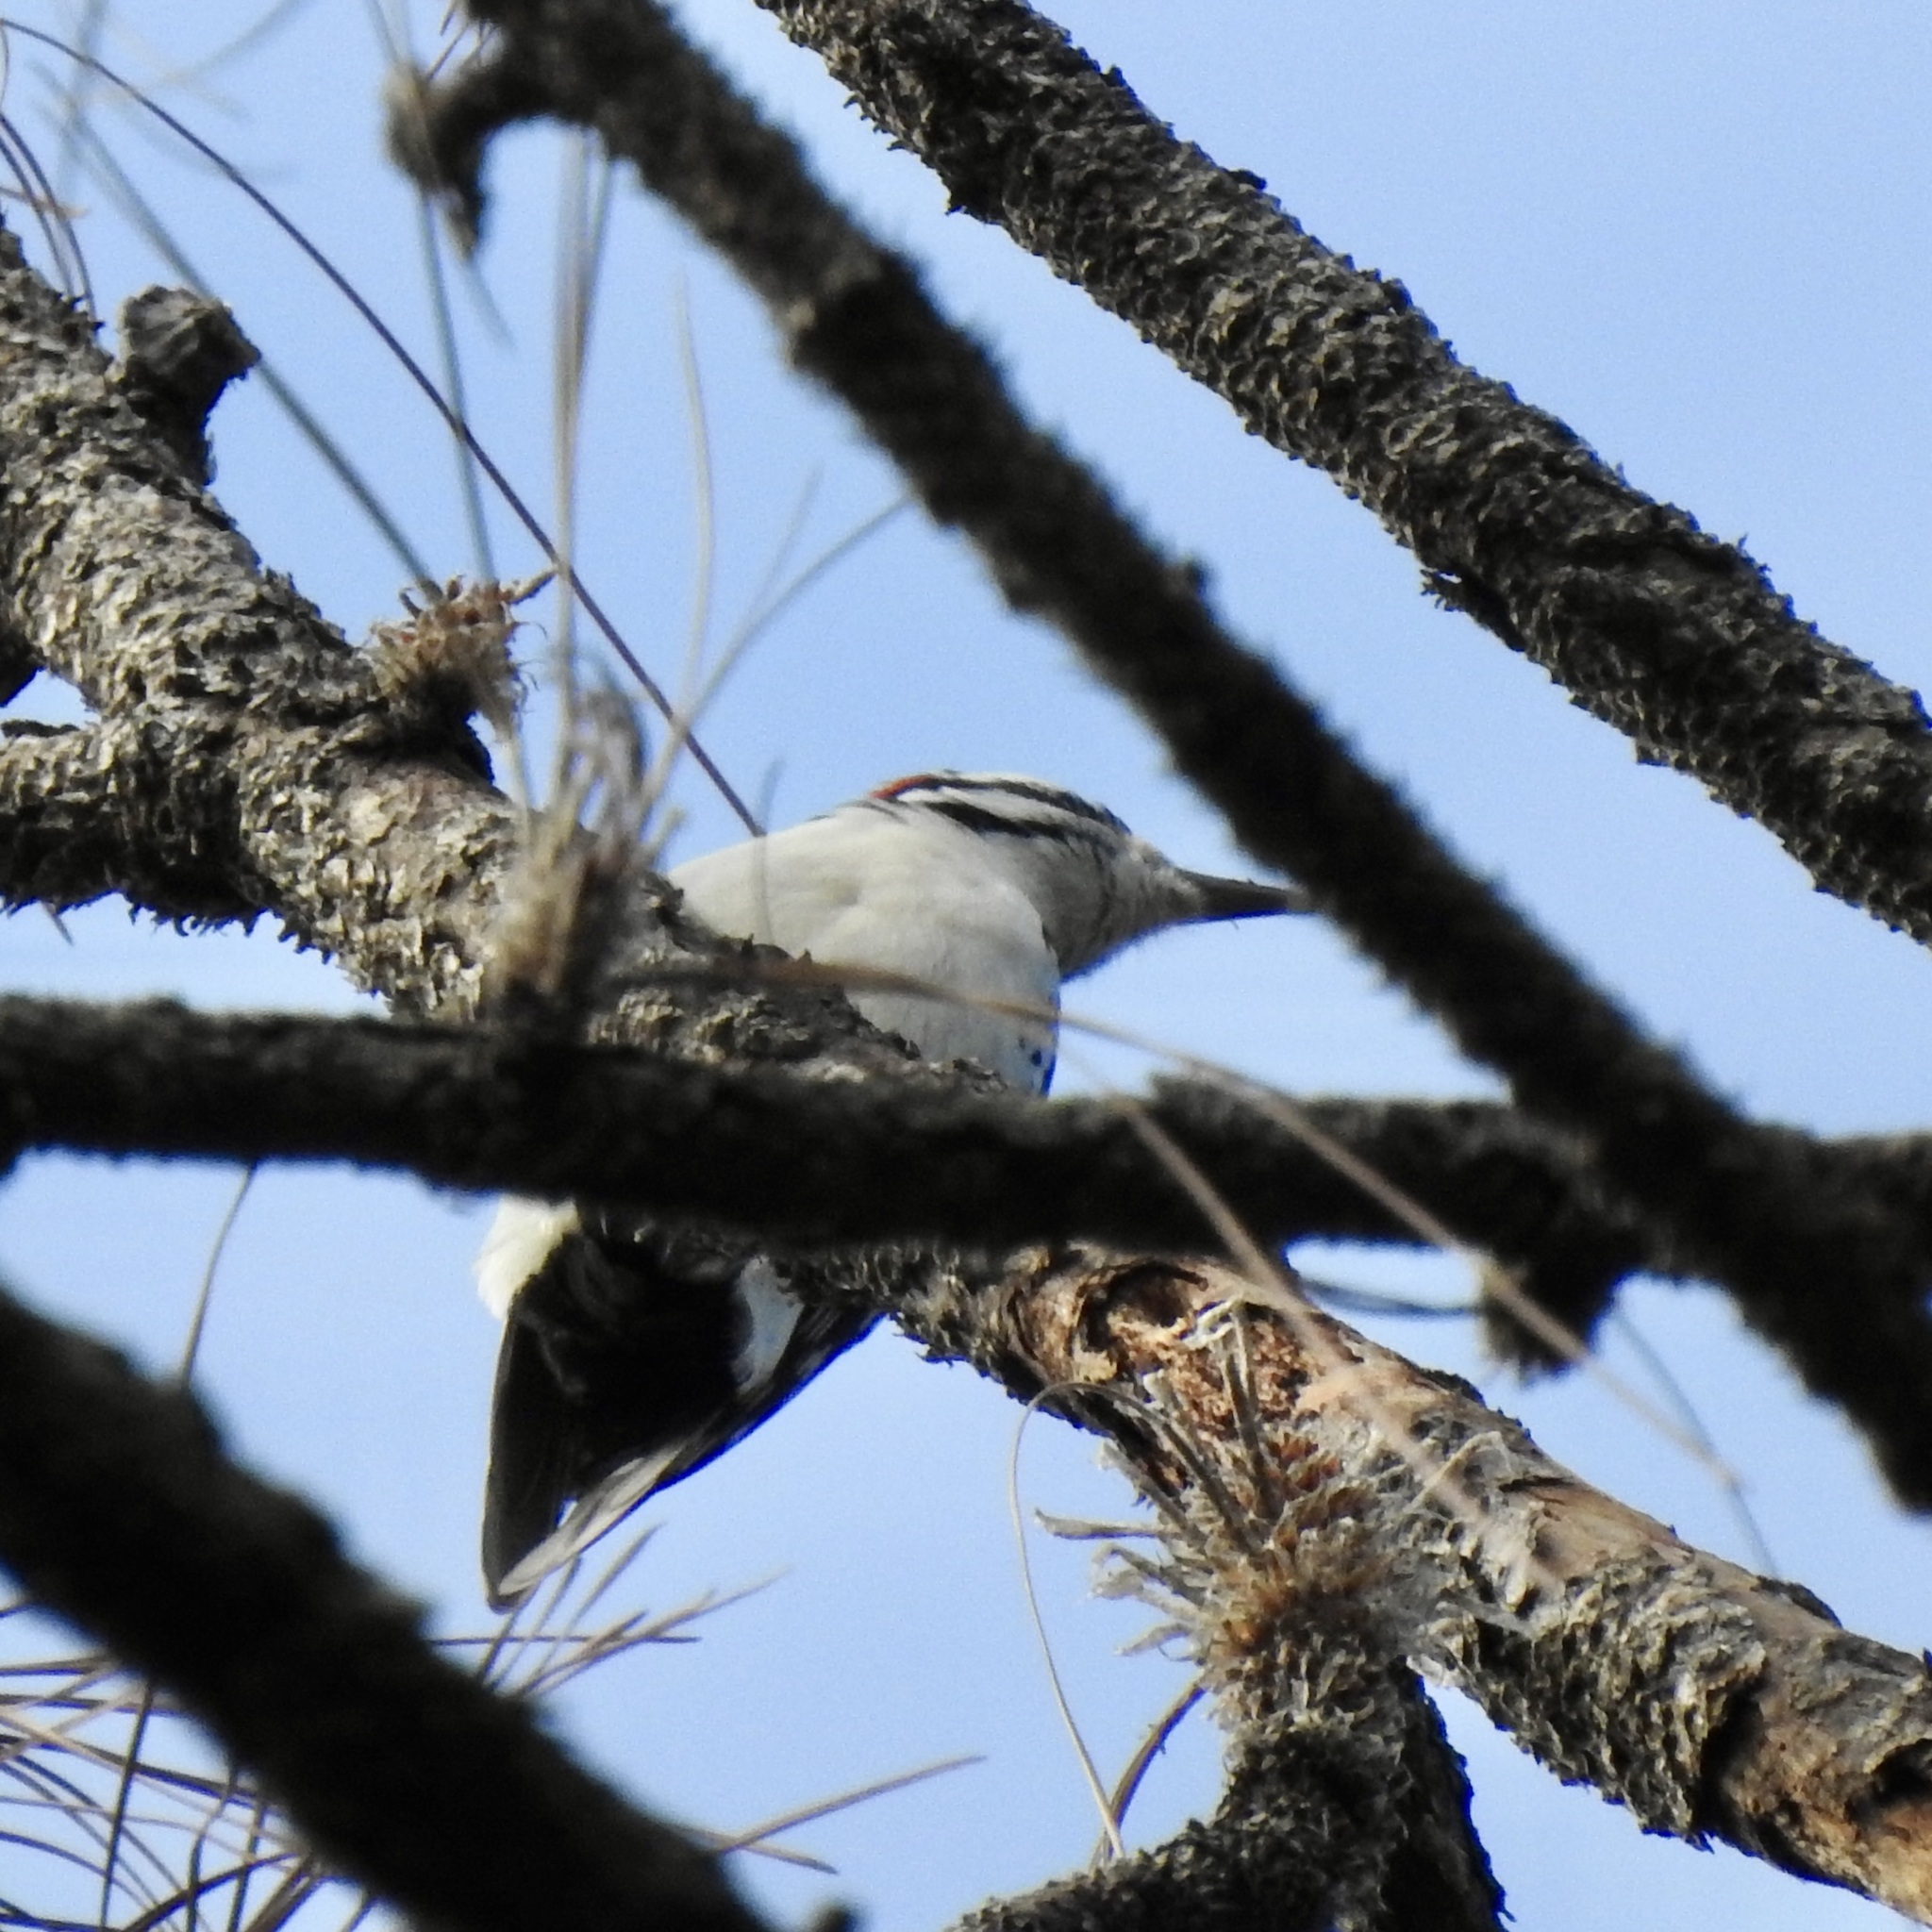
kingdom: Animalia
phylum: Chordata
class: Aves
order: Piciformes
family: Picidae
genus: Leuconotopicus
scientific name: Leuconotopicus villosus
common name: Hairy woodpecker
